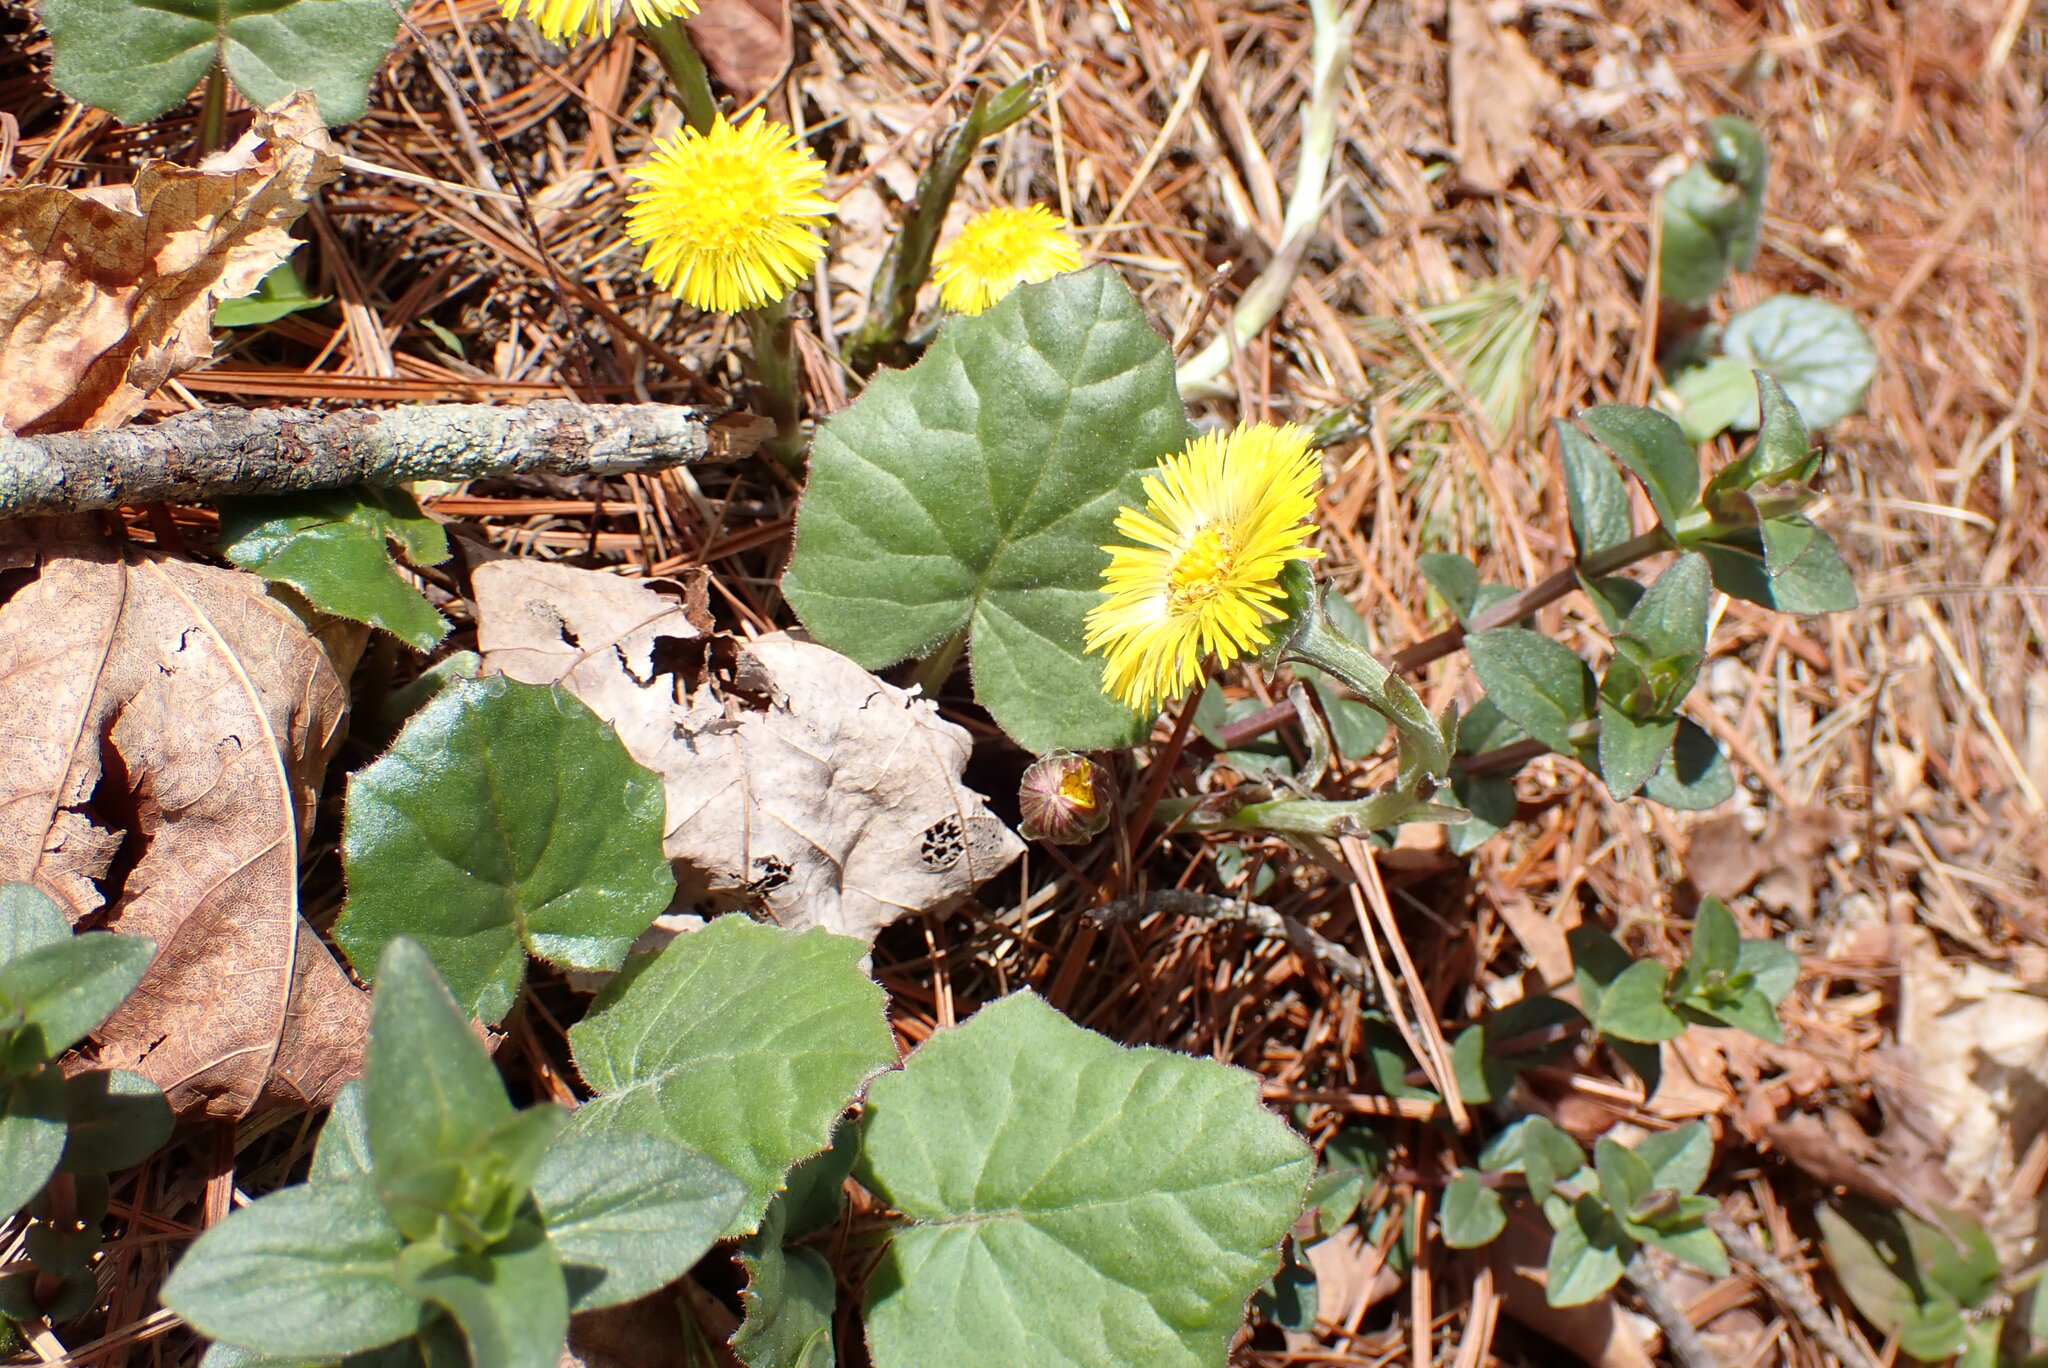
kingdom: Plantae
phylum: Tracheophyta
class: Magnoliopsida
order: Asterales
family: Asteraceae
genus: Tussilago
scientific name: Tussilago farfara
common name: Coltsfoot
